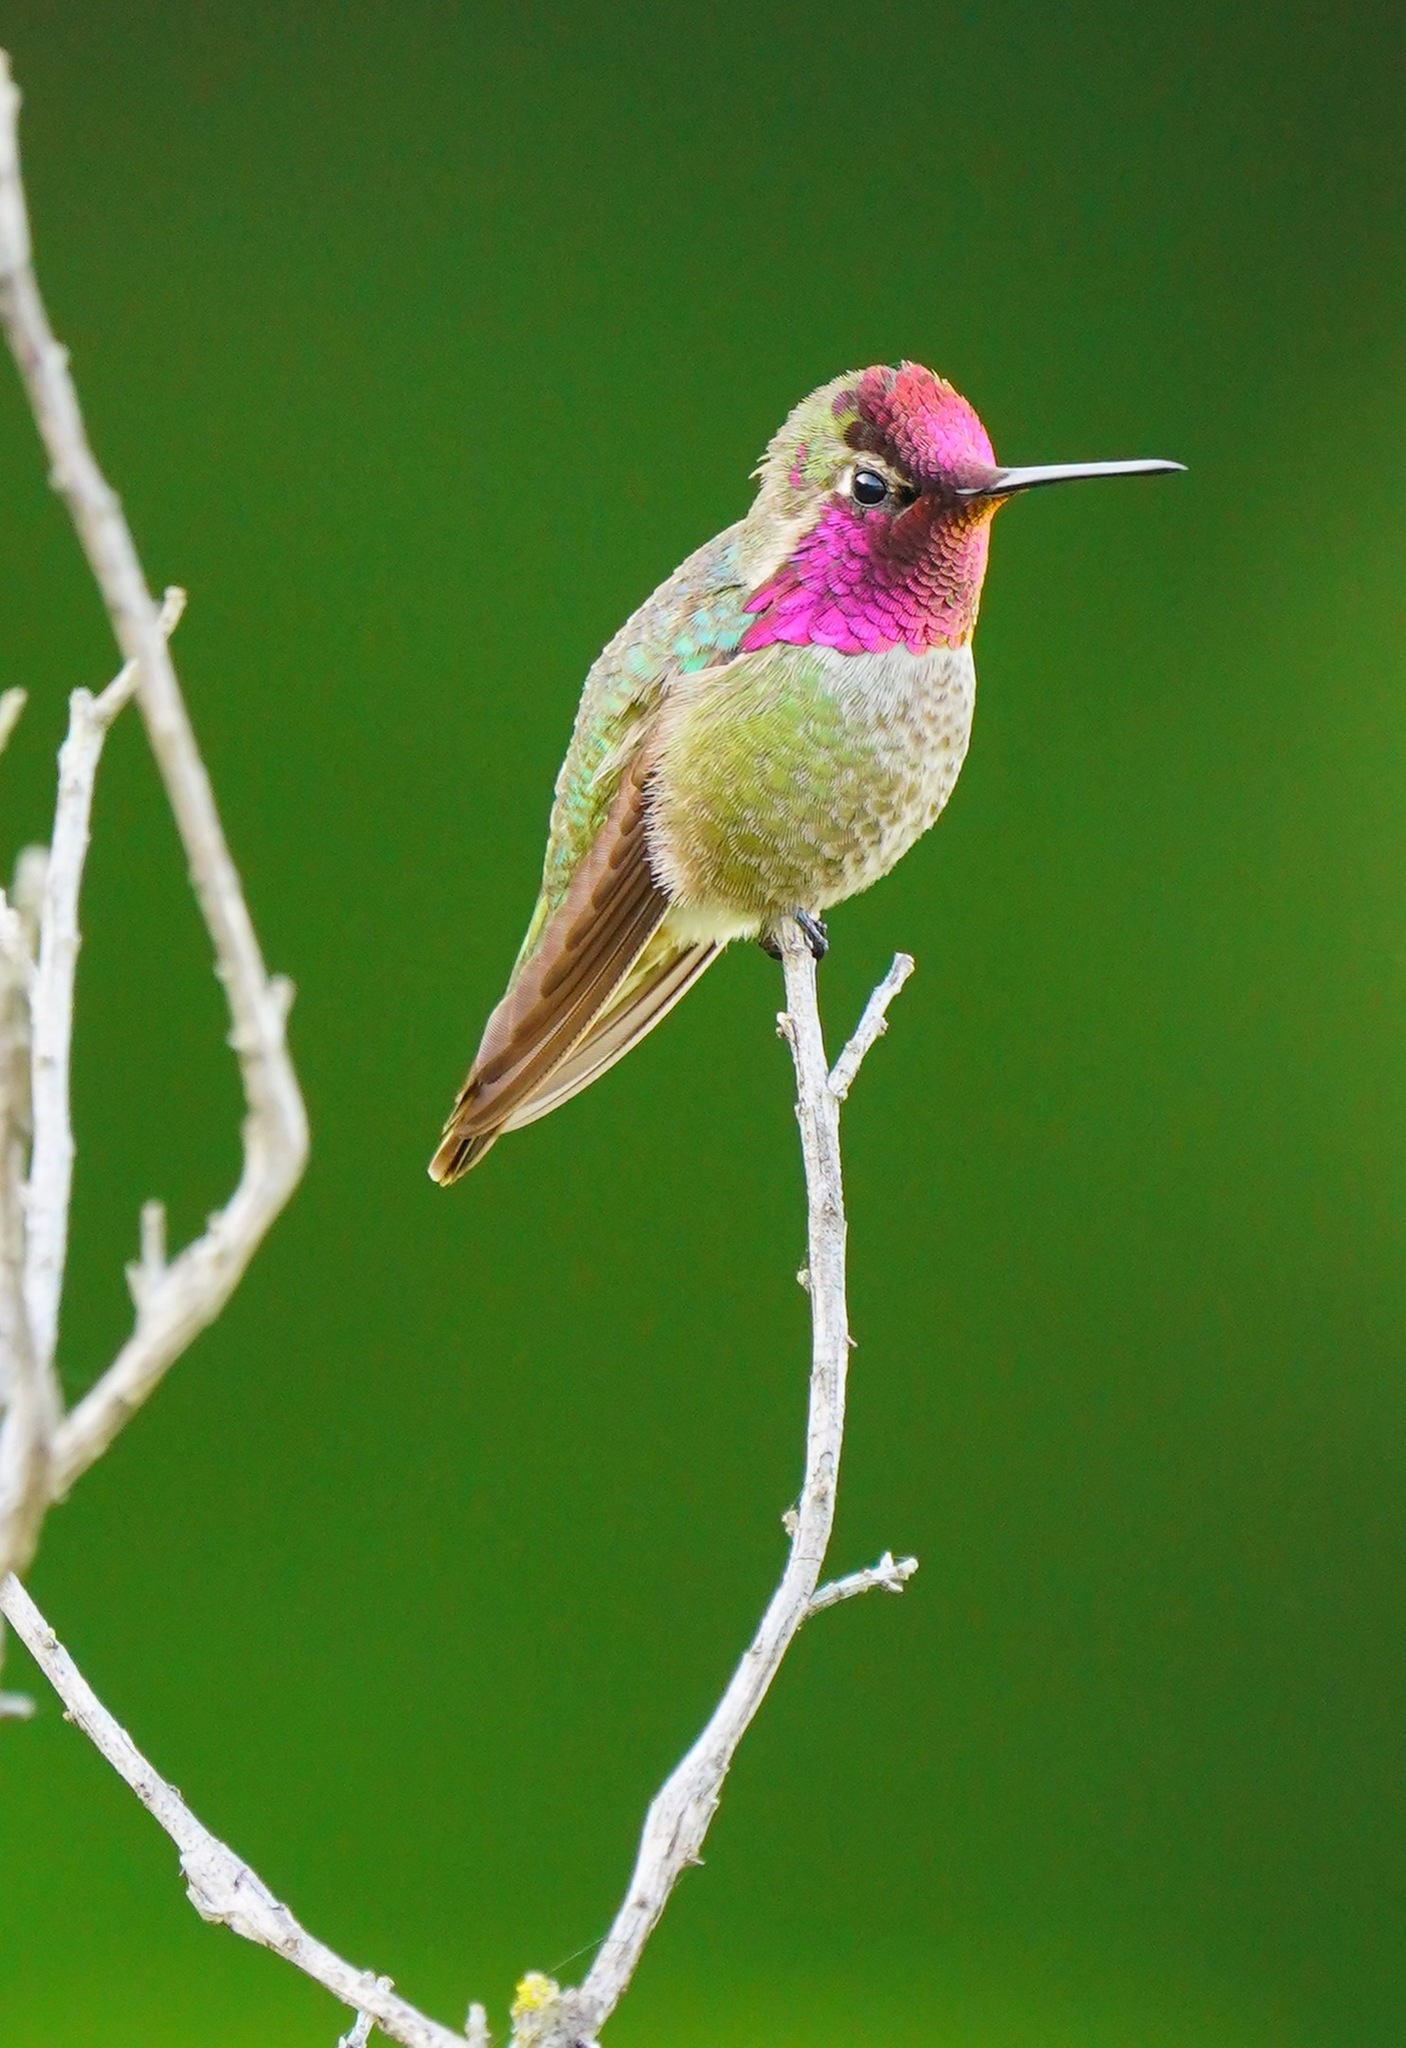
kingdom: Animalia
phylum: Chordata
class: Aves
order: Apodiformes
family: Trochilidae
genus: Calypte
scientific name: Calypte anna
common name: Anna's hummingbird
